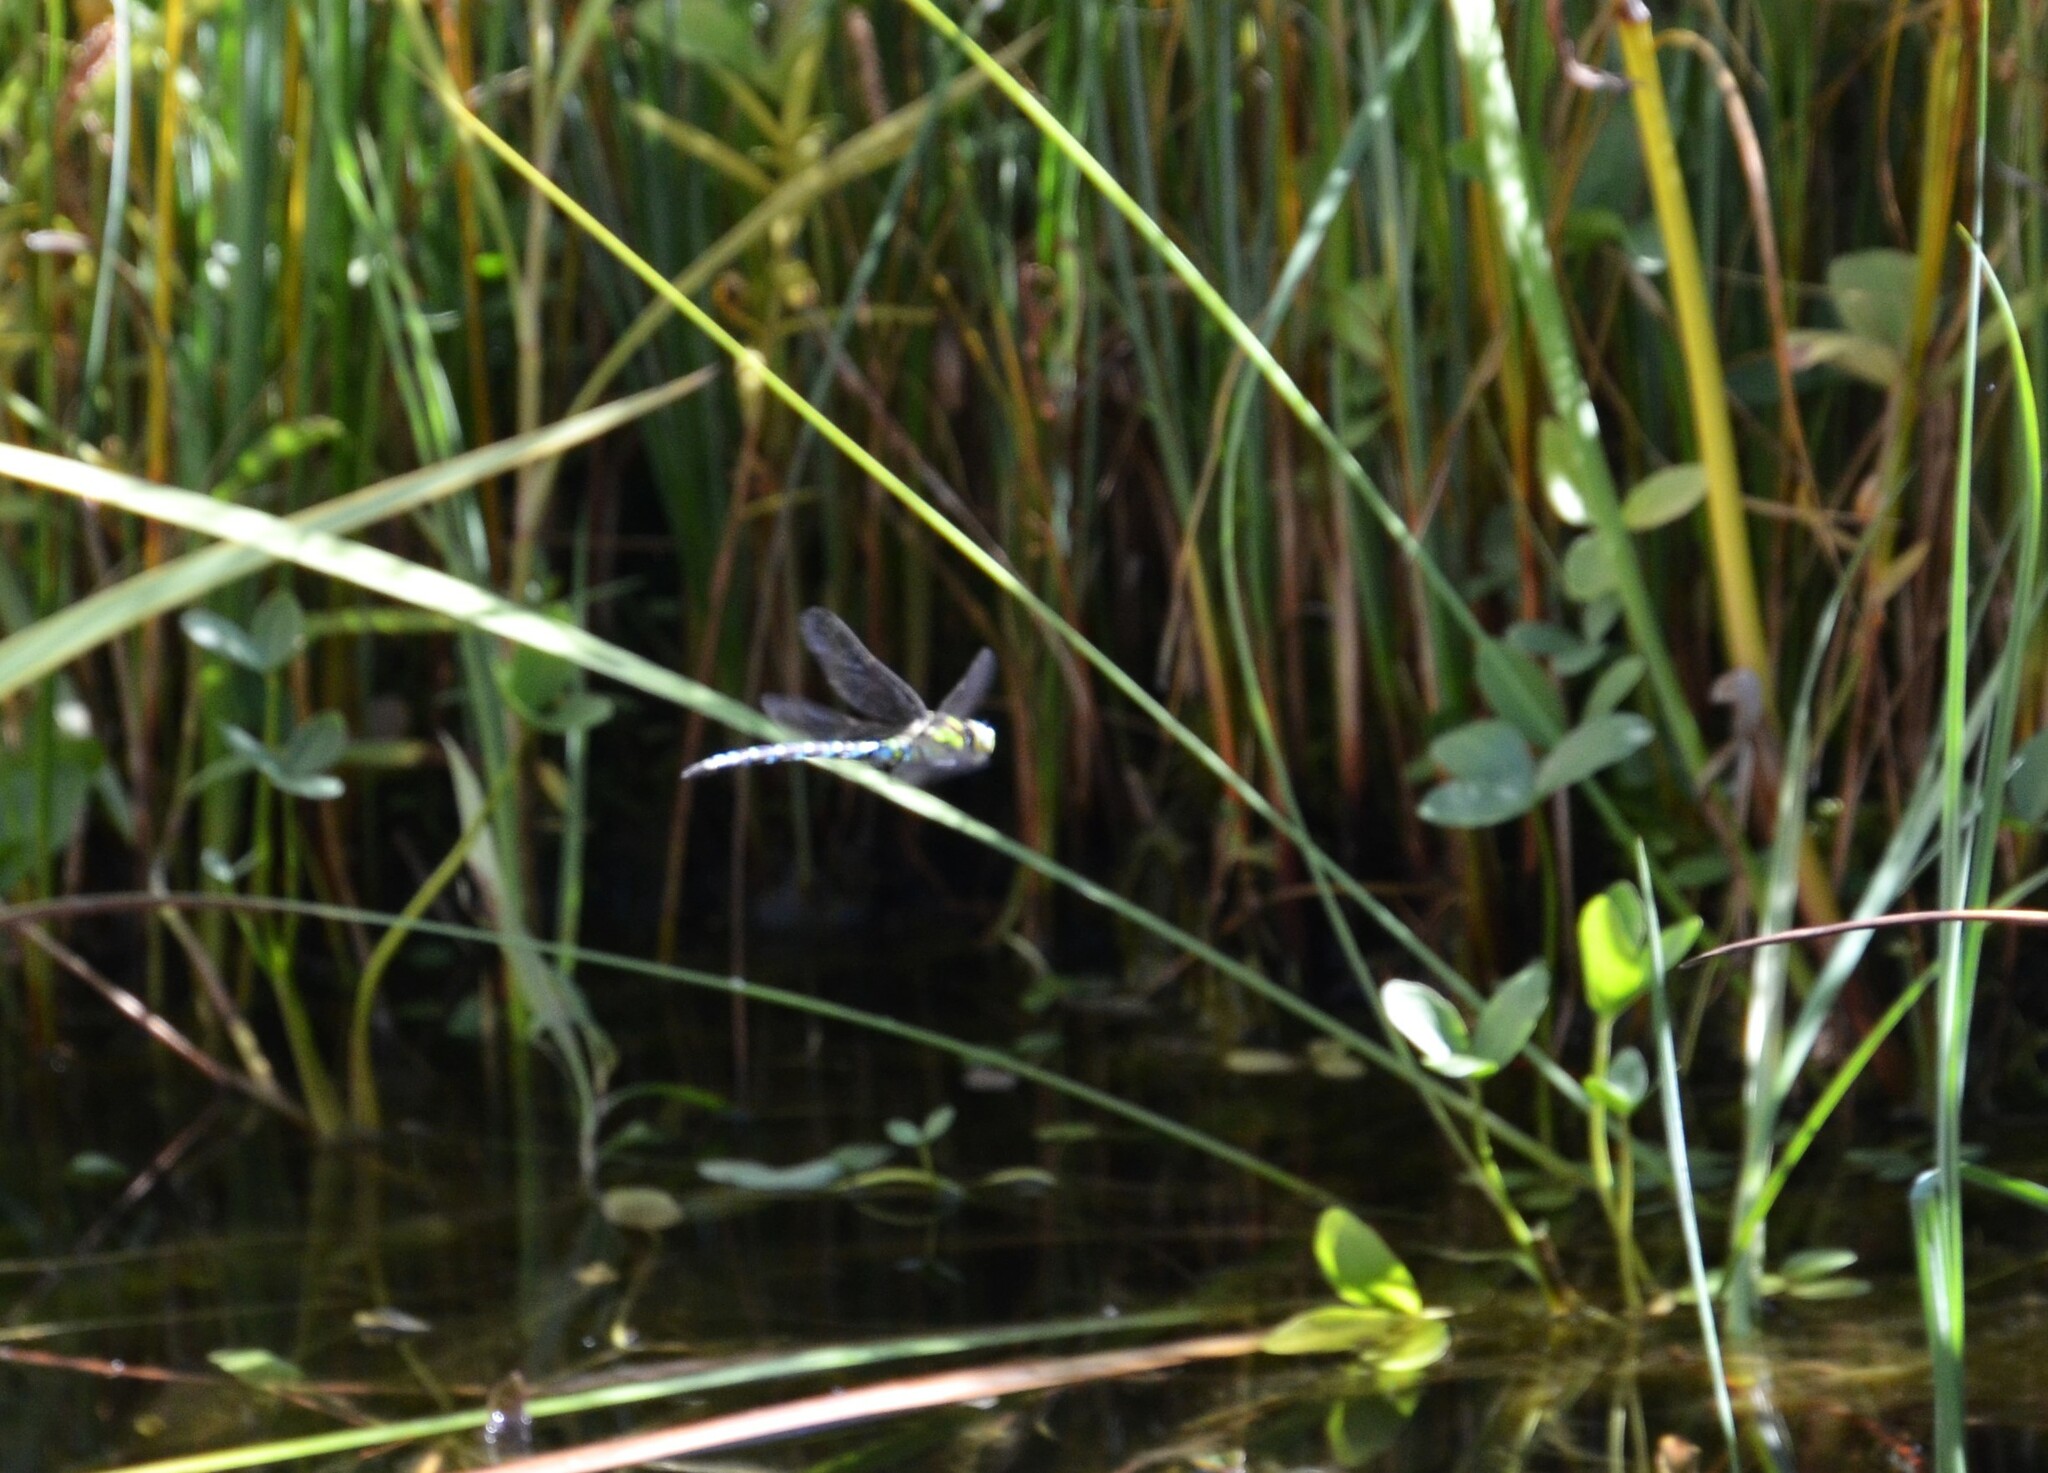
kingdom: Animalia
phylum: Arthropoda
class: Insecta
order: Odonata
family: Aeshnidae
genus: Aeshna
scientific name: Aeshna cyanea
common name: Southern hawker
